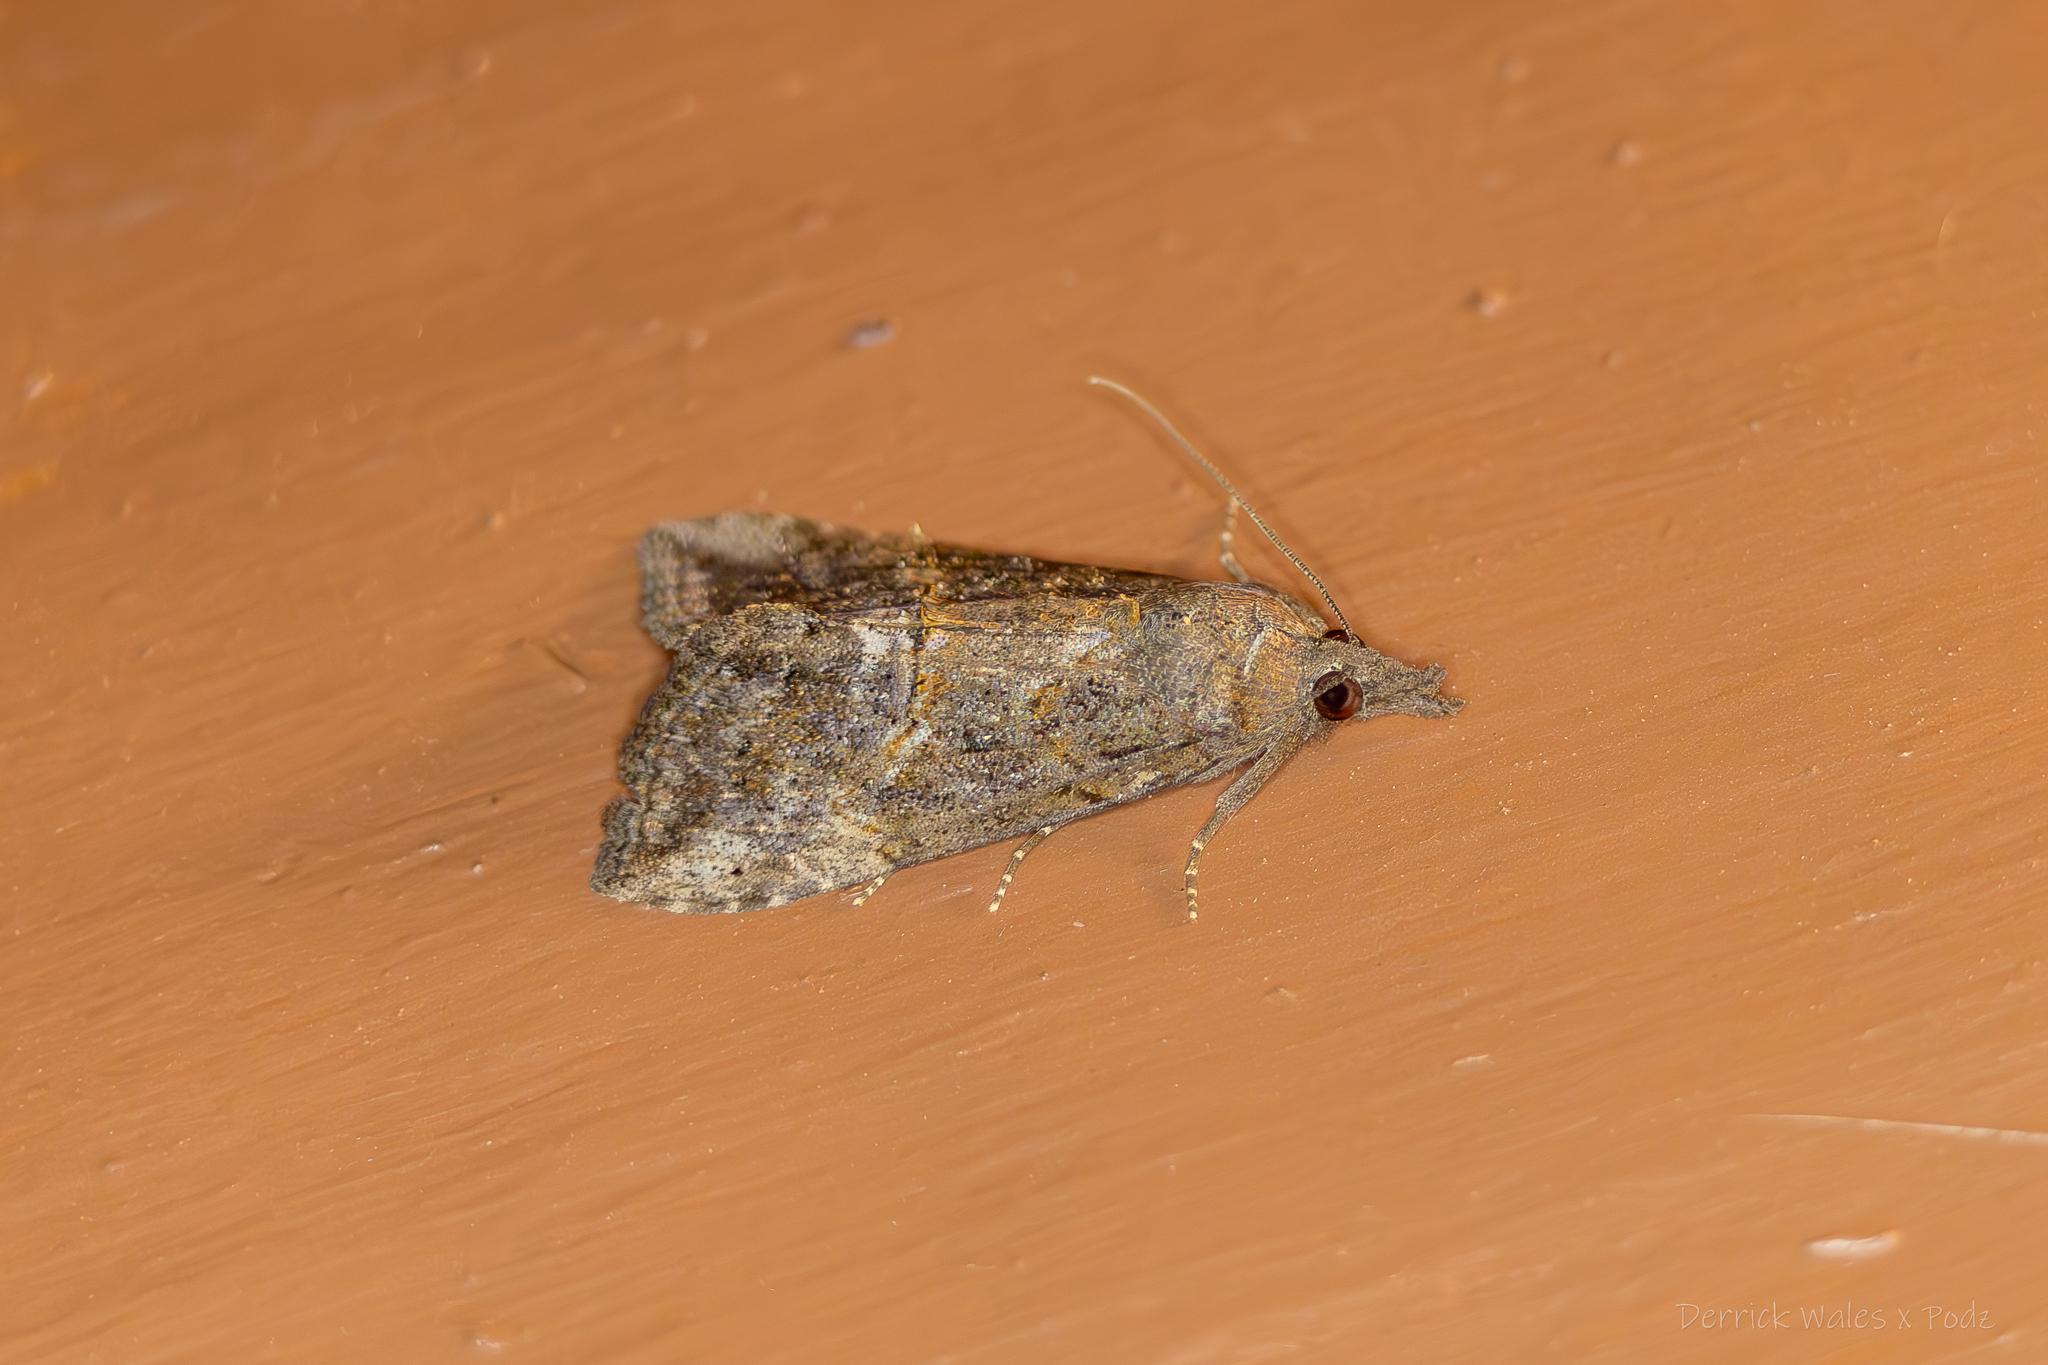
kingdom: Animalia
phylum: Arthropoda
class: Insecta
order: Lepidoptera
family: Erebidae
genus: Hypena
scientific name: Hypena scabra
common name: Green cloverworm
